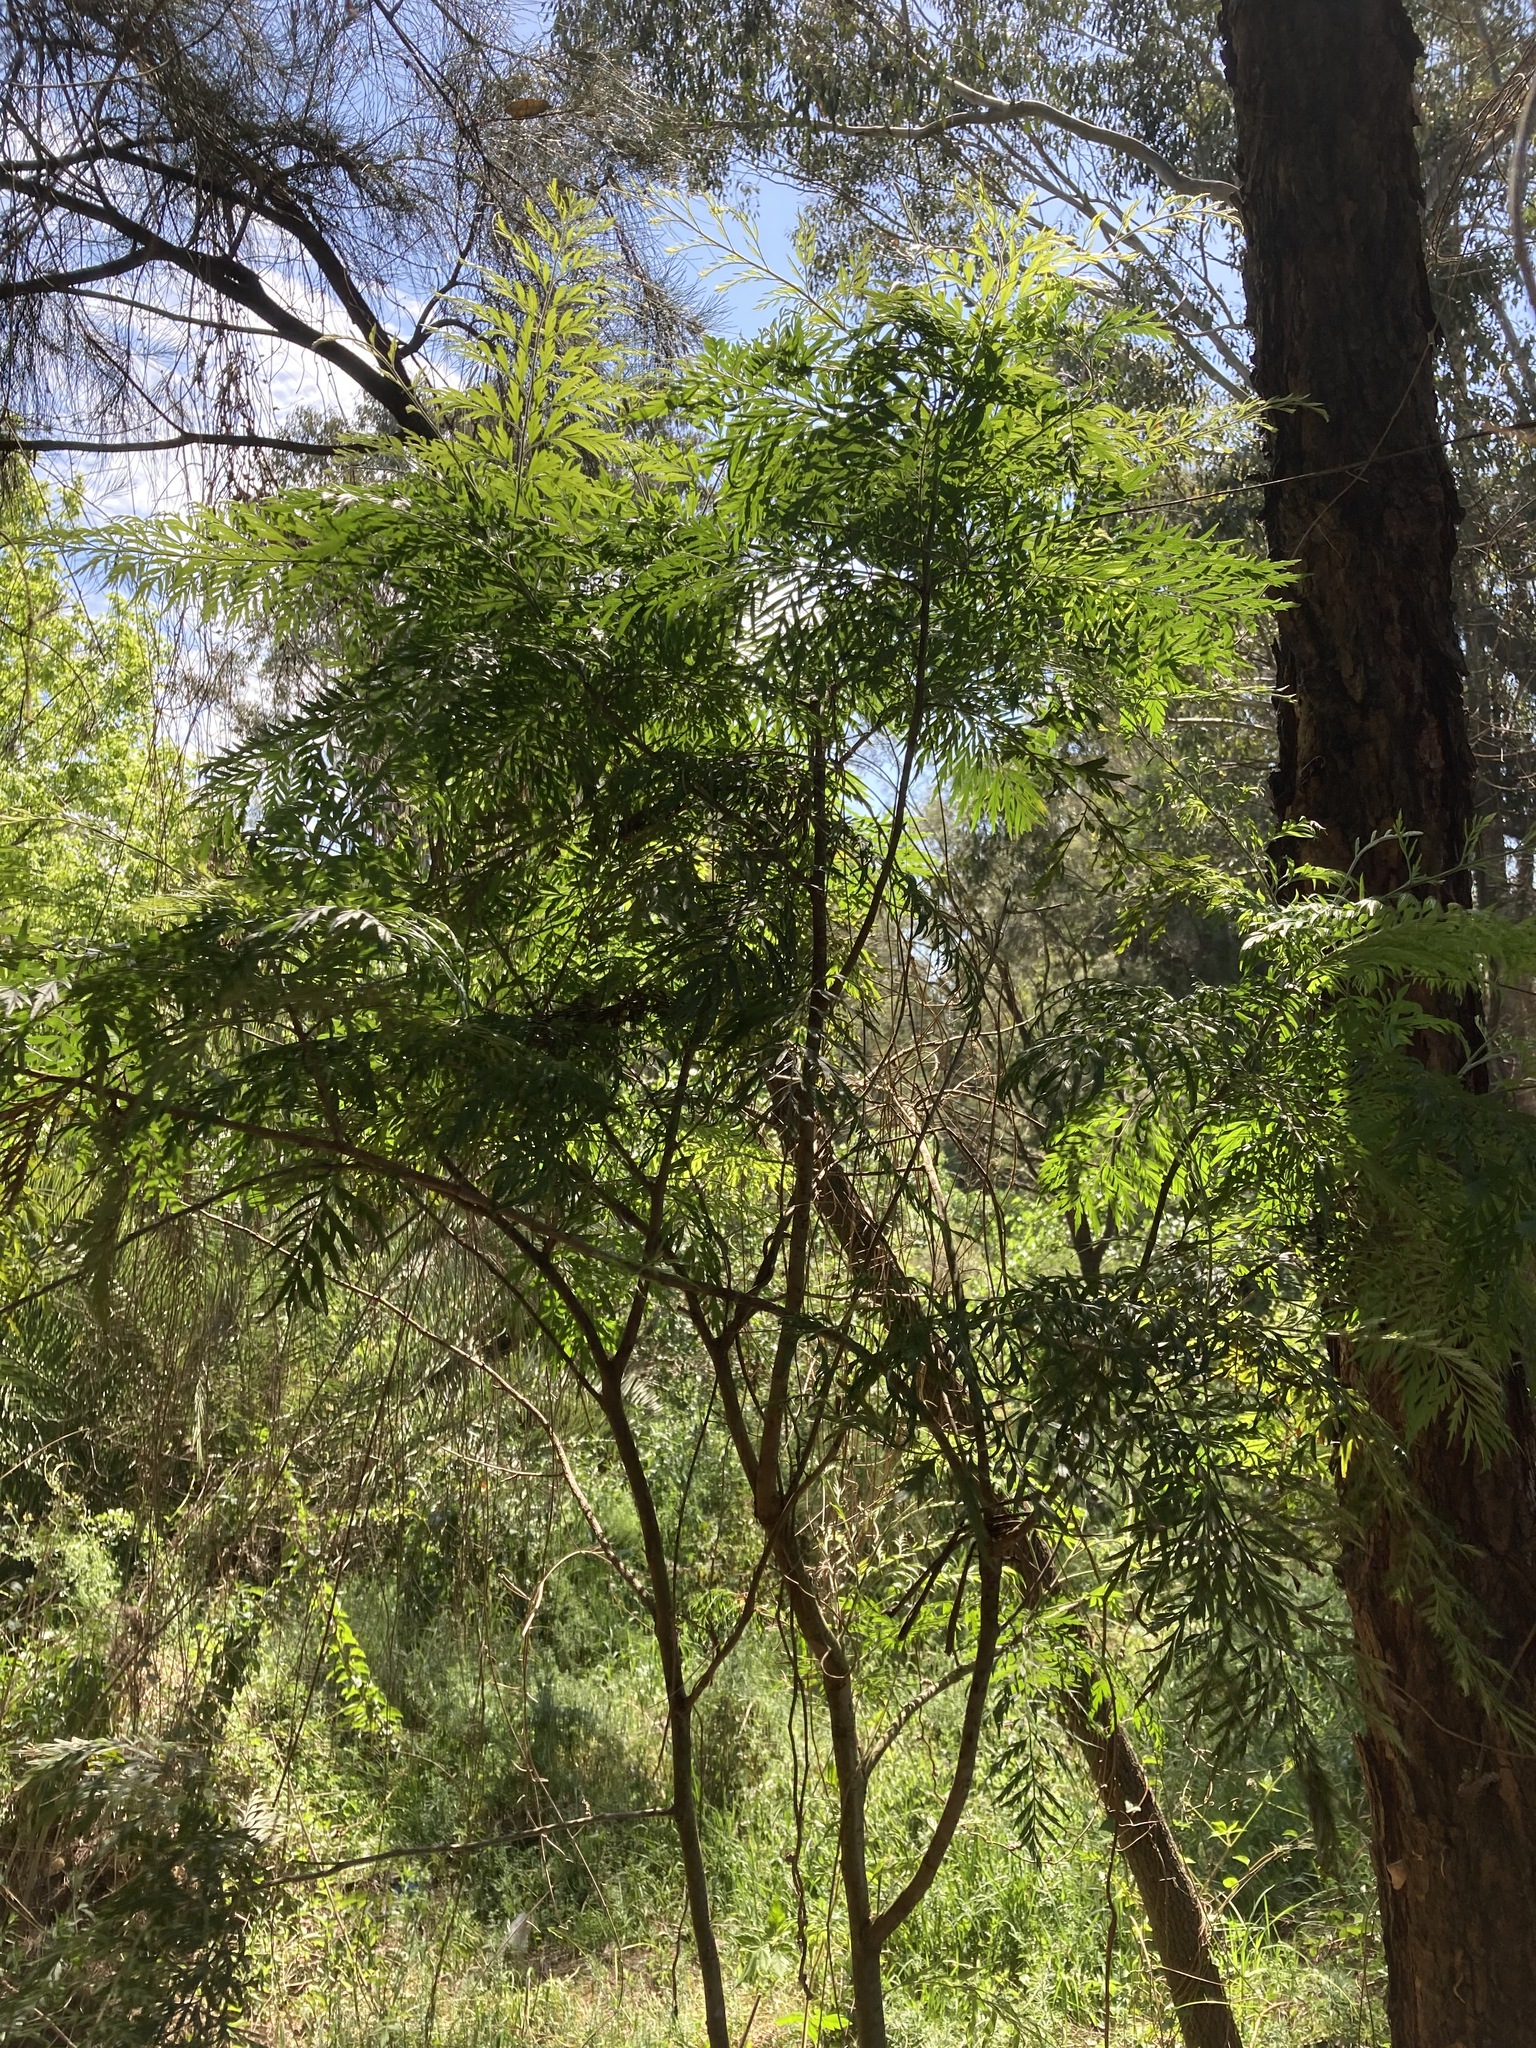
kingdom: Plantae
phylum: Tracheophyta
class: Magnoliopsida
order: Proteales
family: Proteaceae
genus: Grevillea
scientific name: Grevillea robusta
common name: Silkoak
